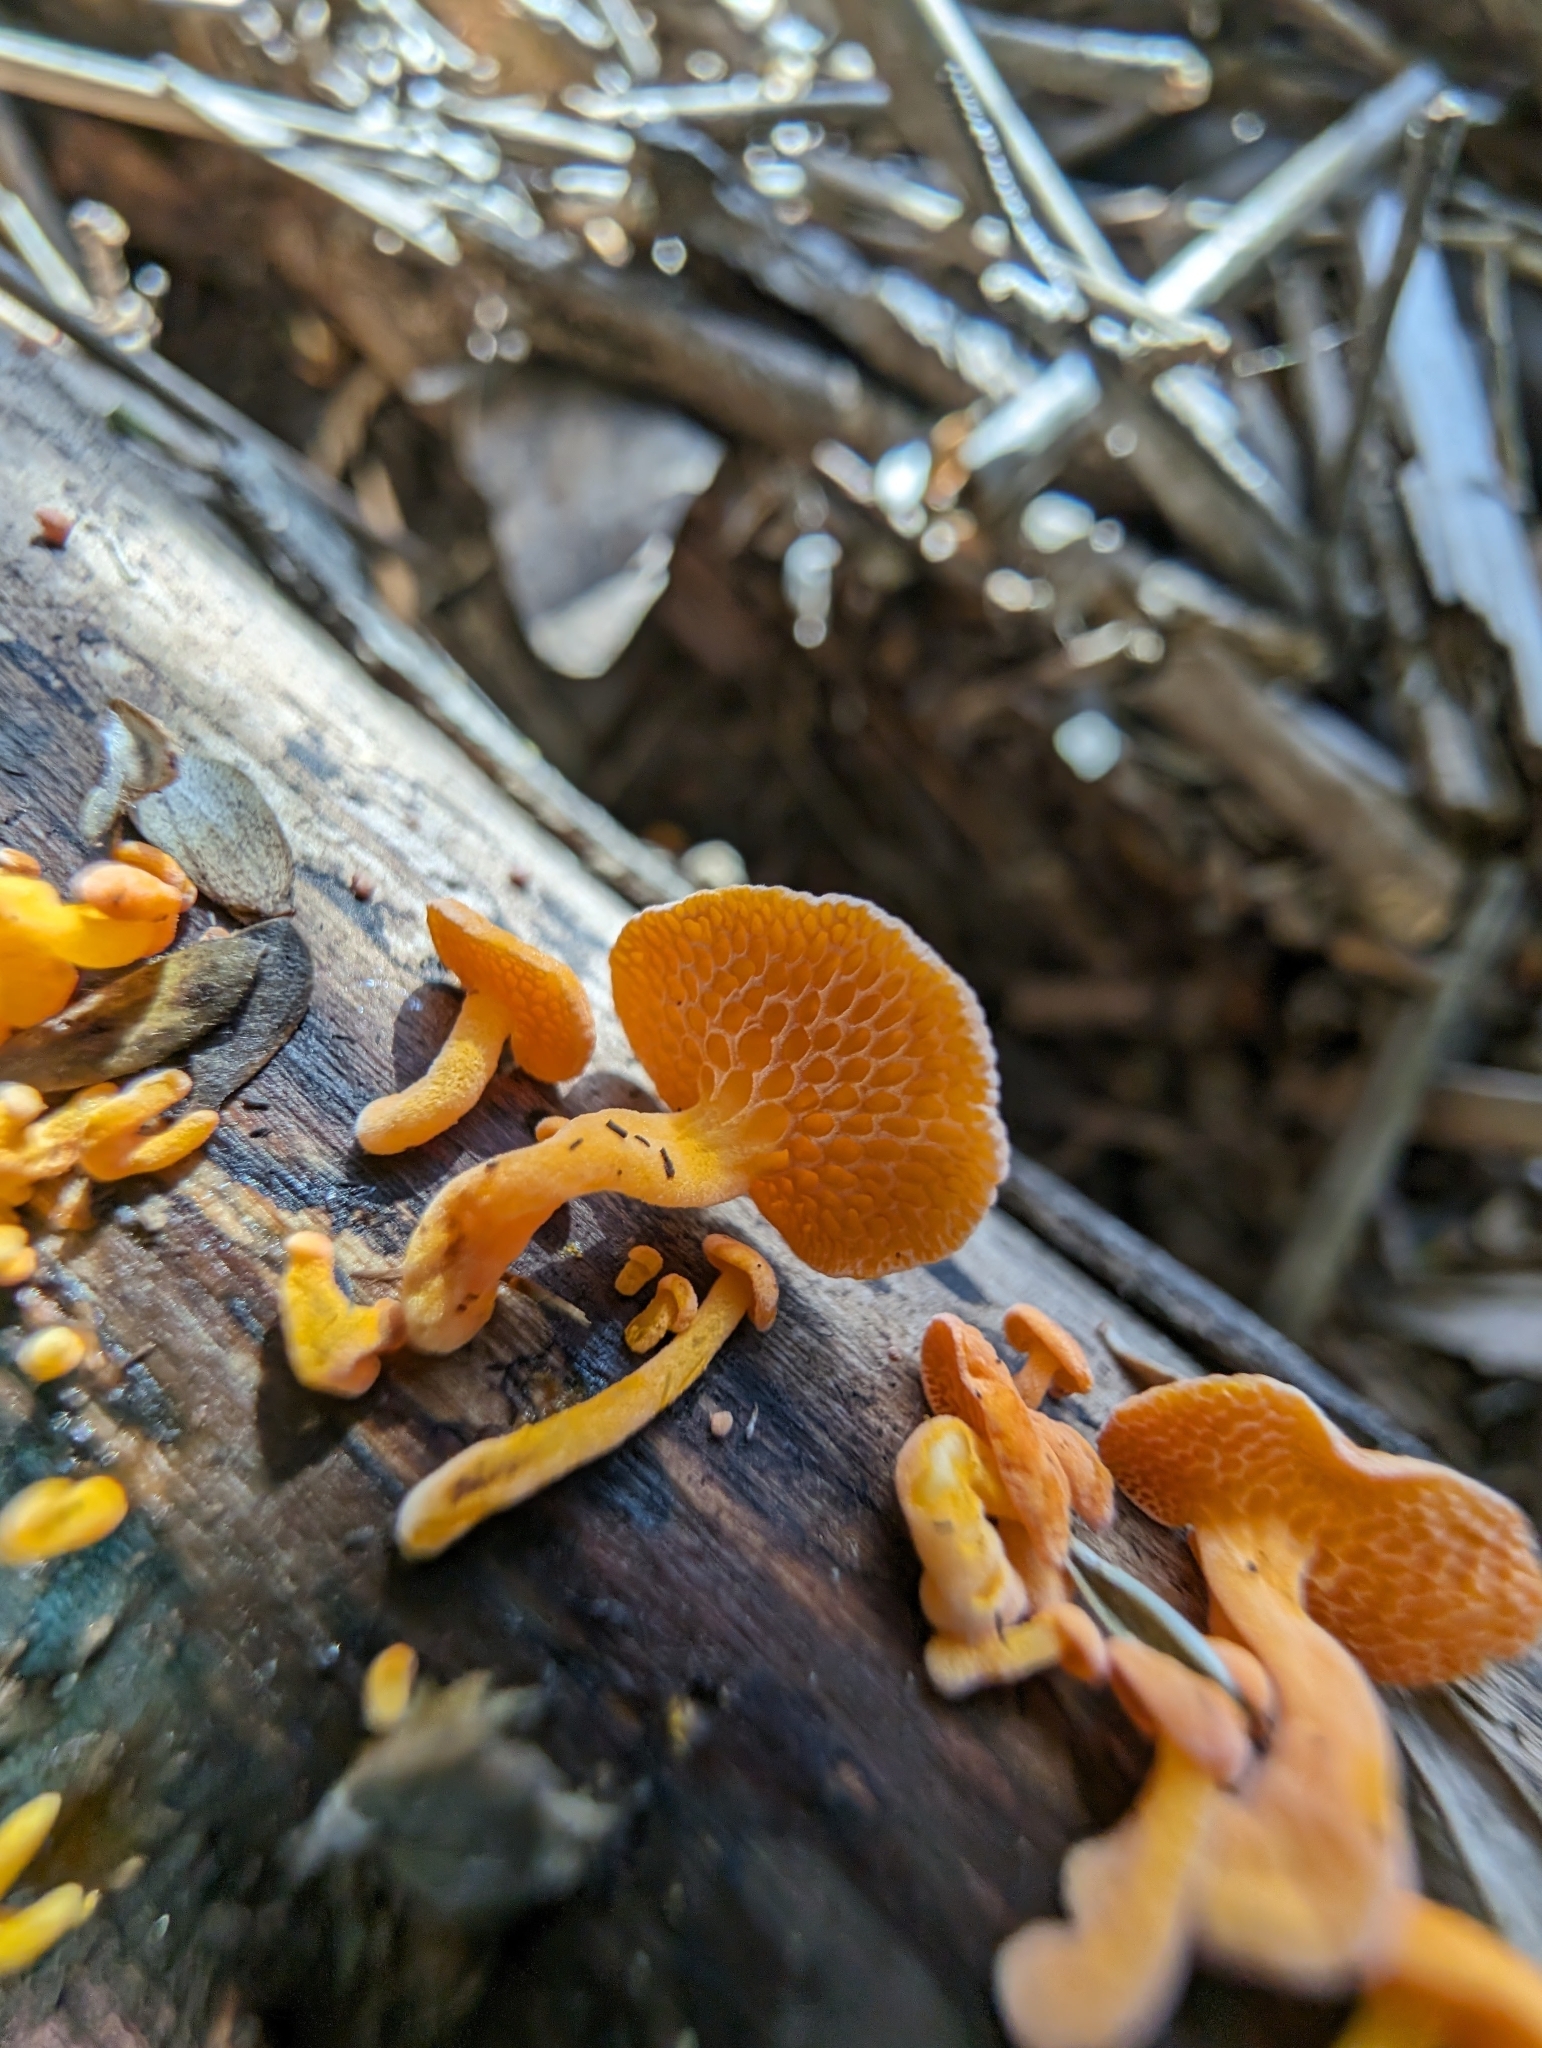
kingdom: Fungi
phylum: Basidiomycota
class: Agaricomycetes
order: Agaricales
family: Mycenaceae
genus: Favolaschia
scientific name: Favolaschia claudopus
